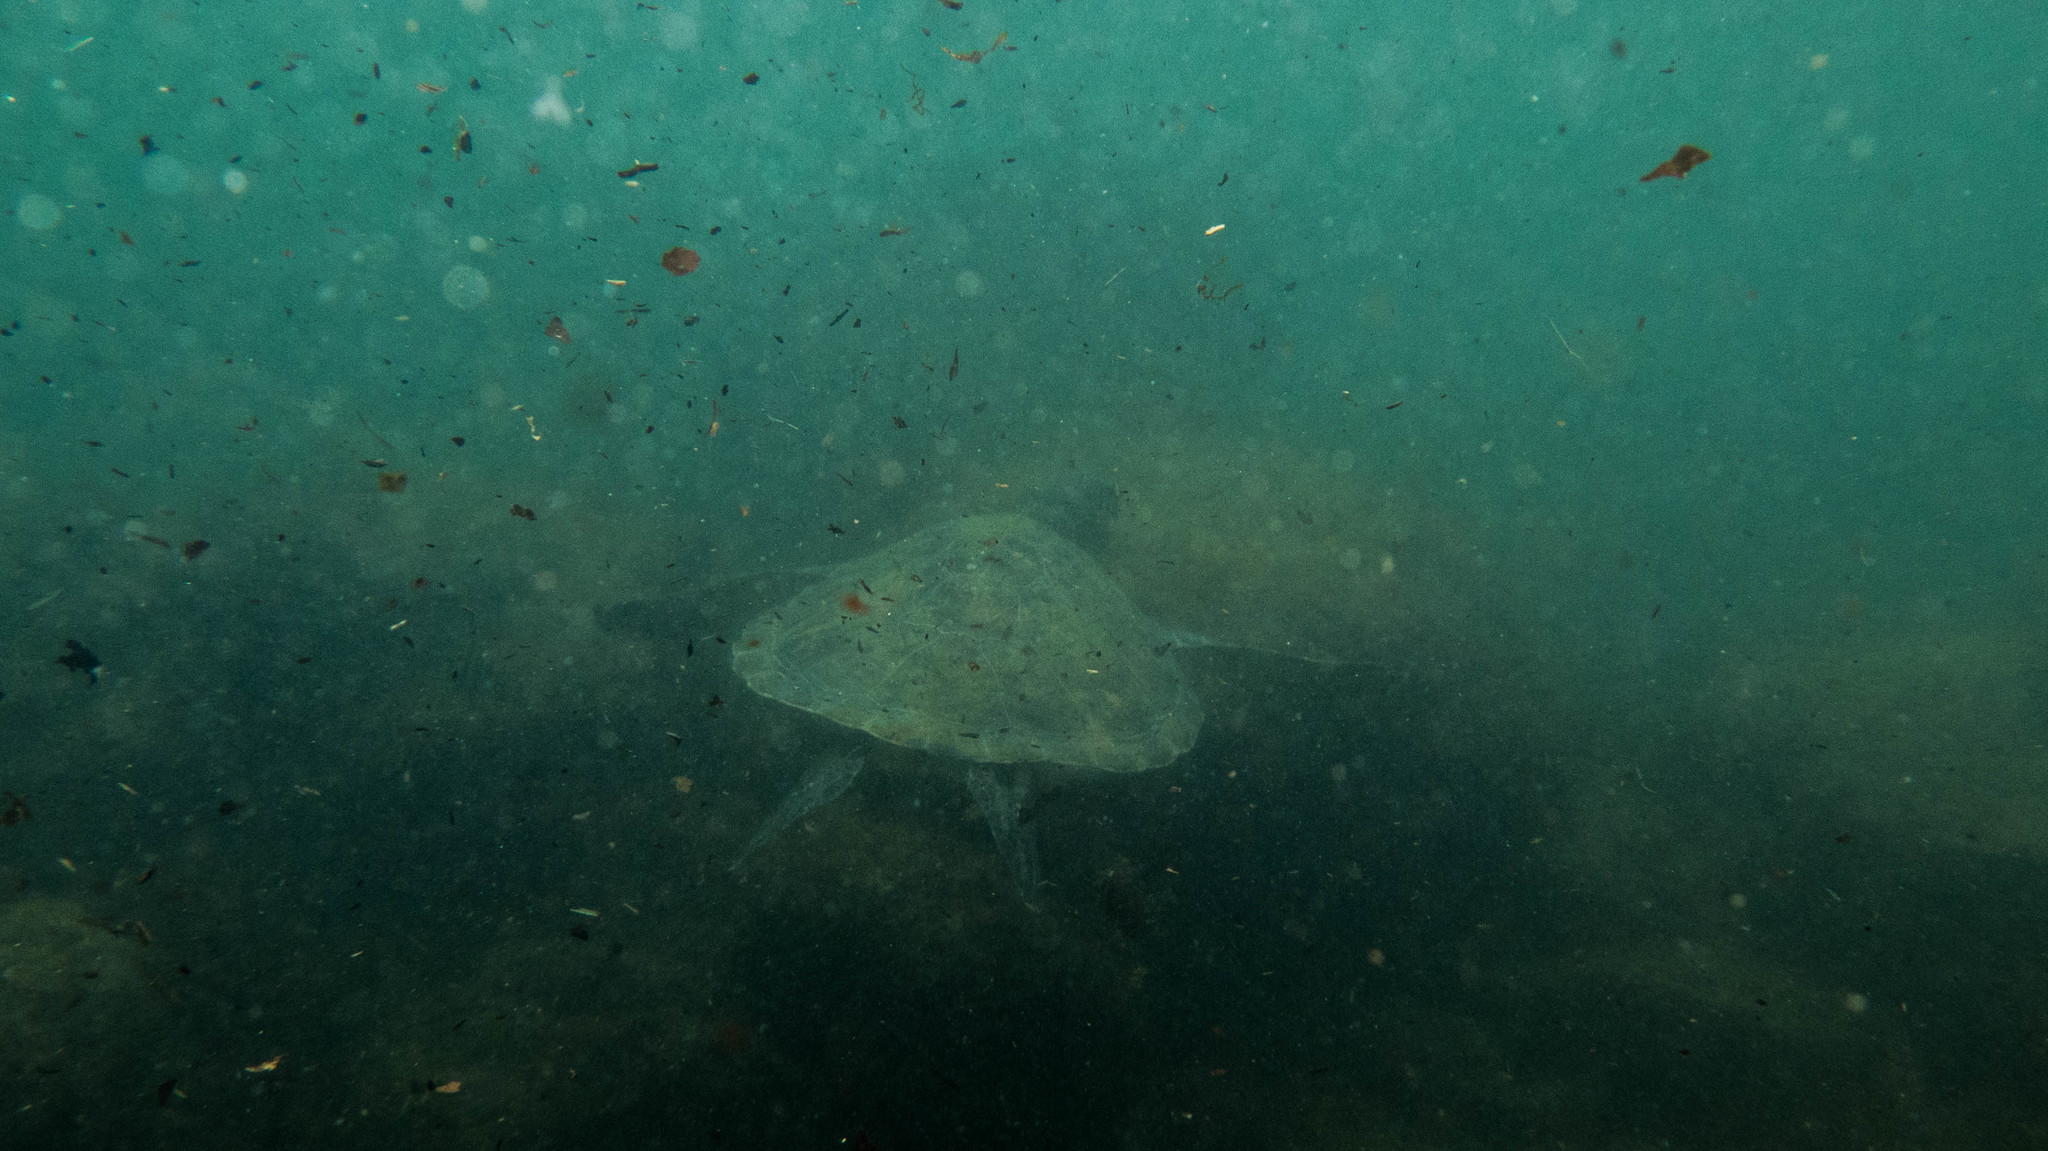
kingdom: Animalia
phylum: Chordata
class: Testudines
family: Cheloniidae
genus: Chelonia
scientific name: Chelonia mydas
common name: Green turtle
